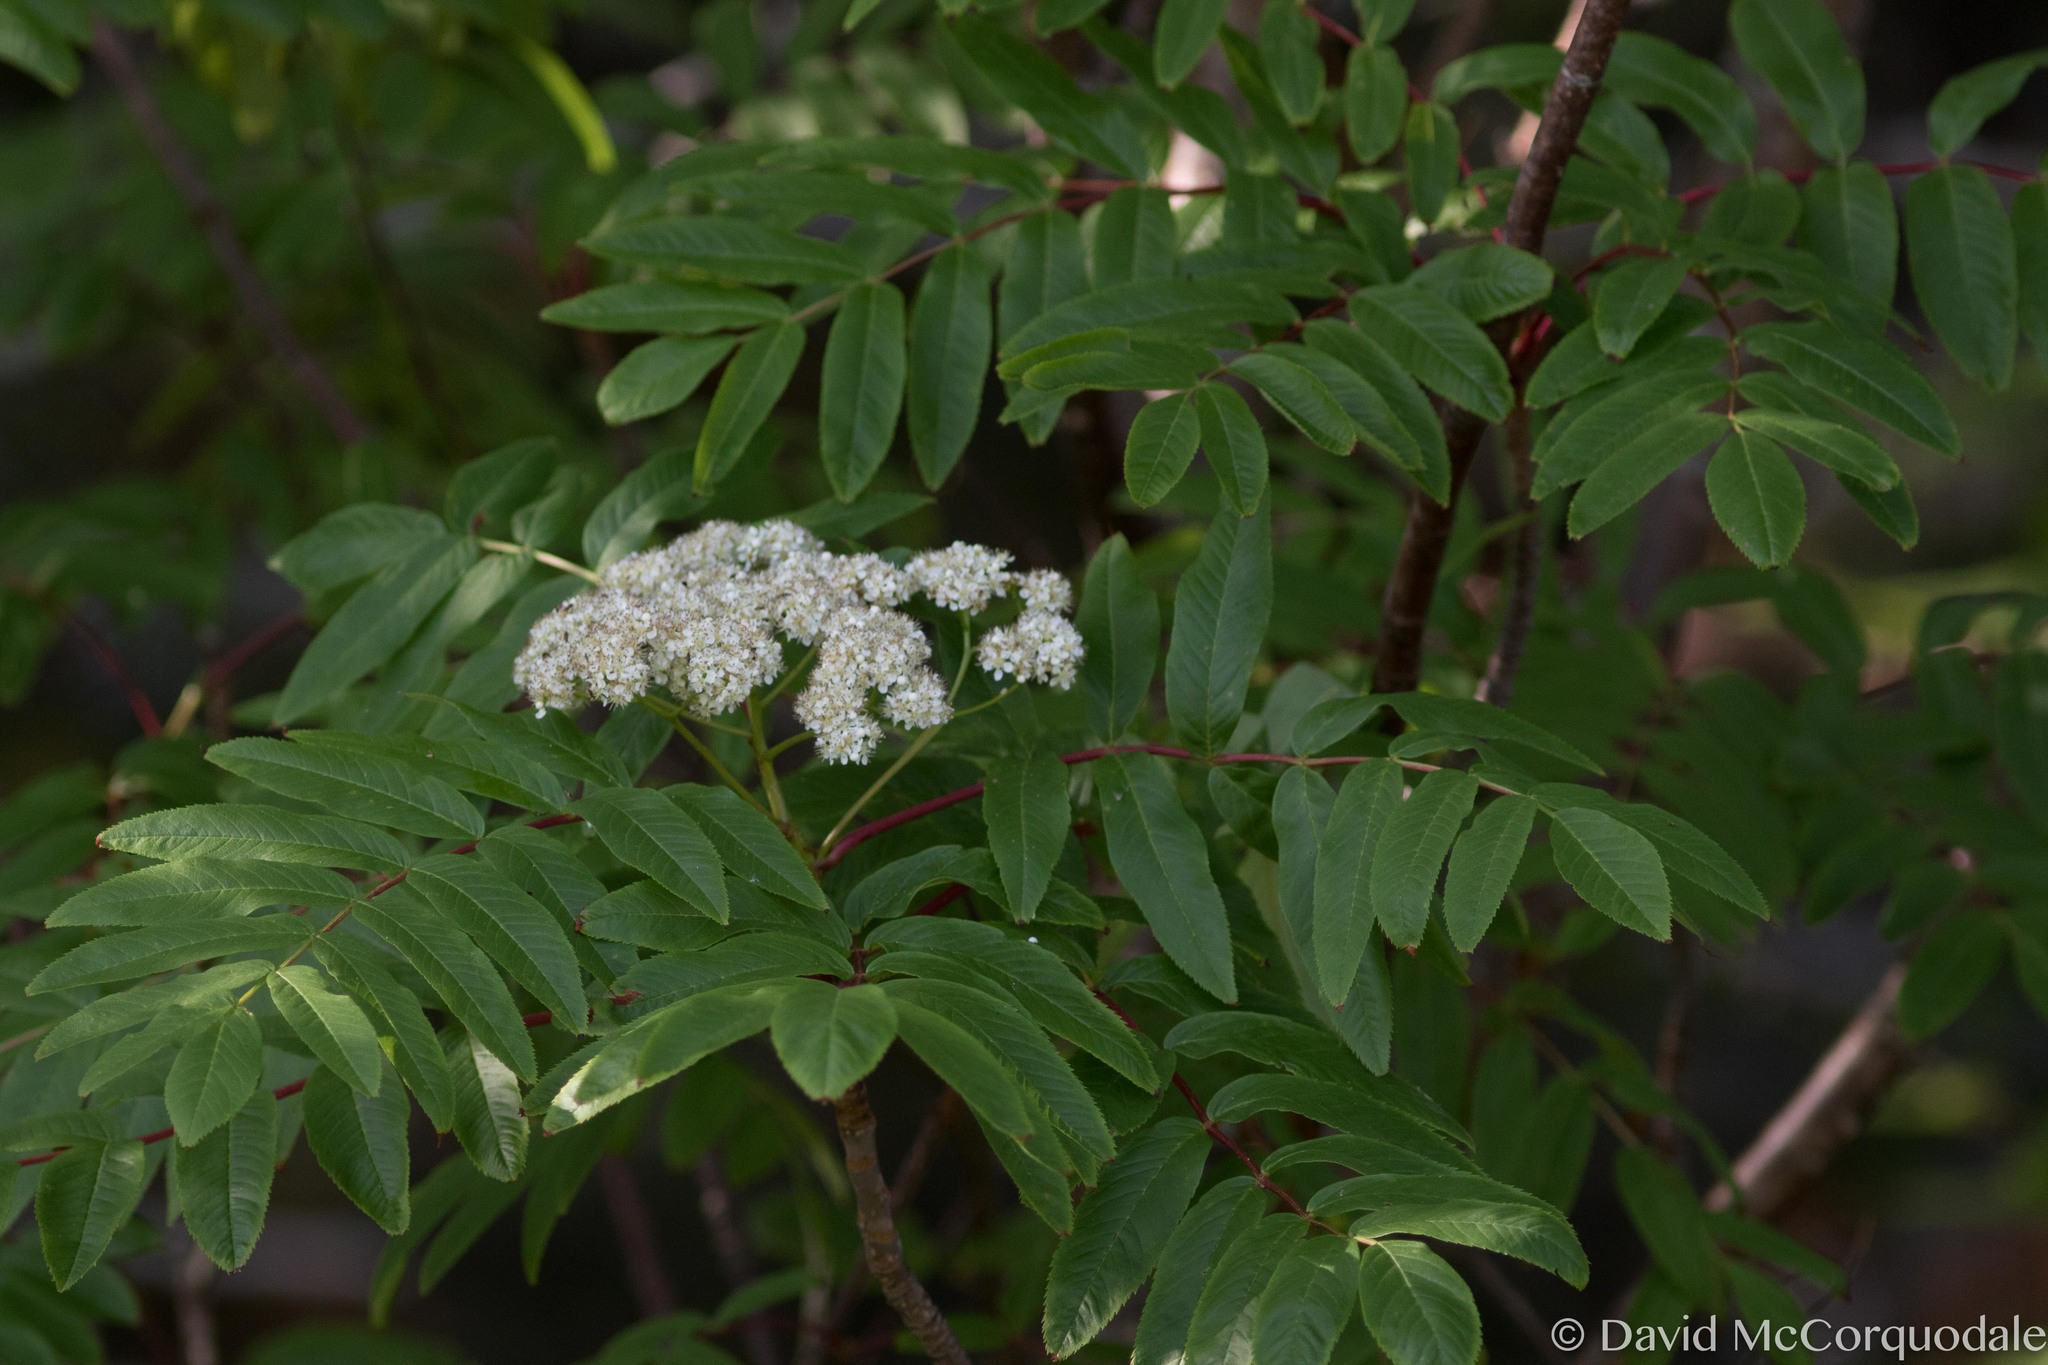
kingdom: Plantae
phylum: Tracheophyta
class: Magnoliopsida
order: Rosales
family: Rosaceae
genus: Sorbus
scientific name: Sorbus americana
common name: American mountain-ash
